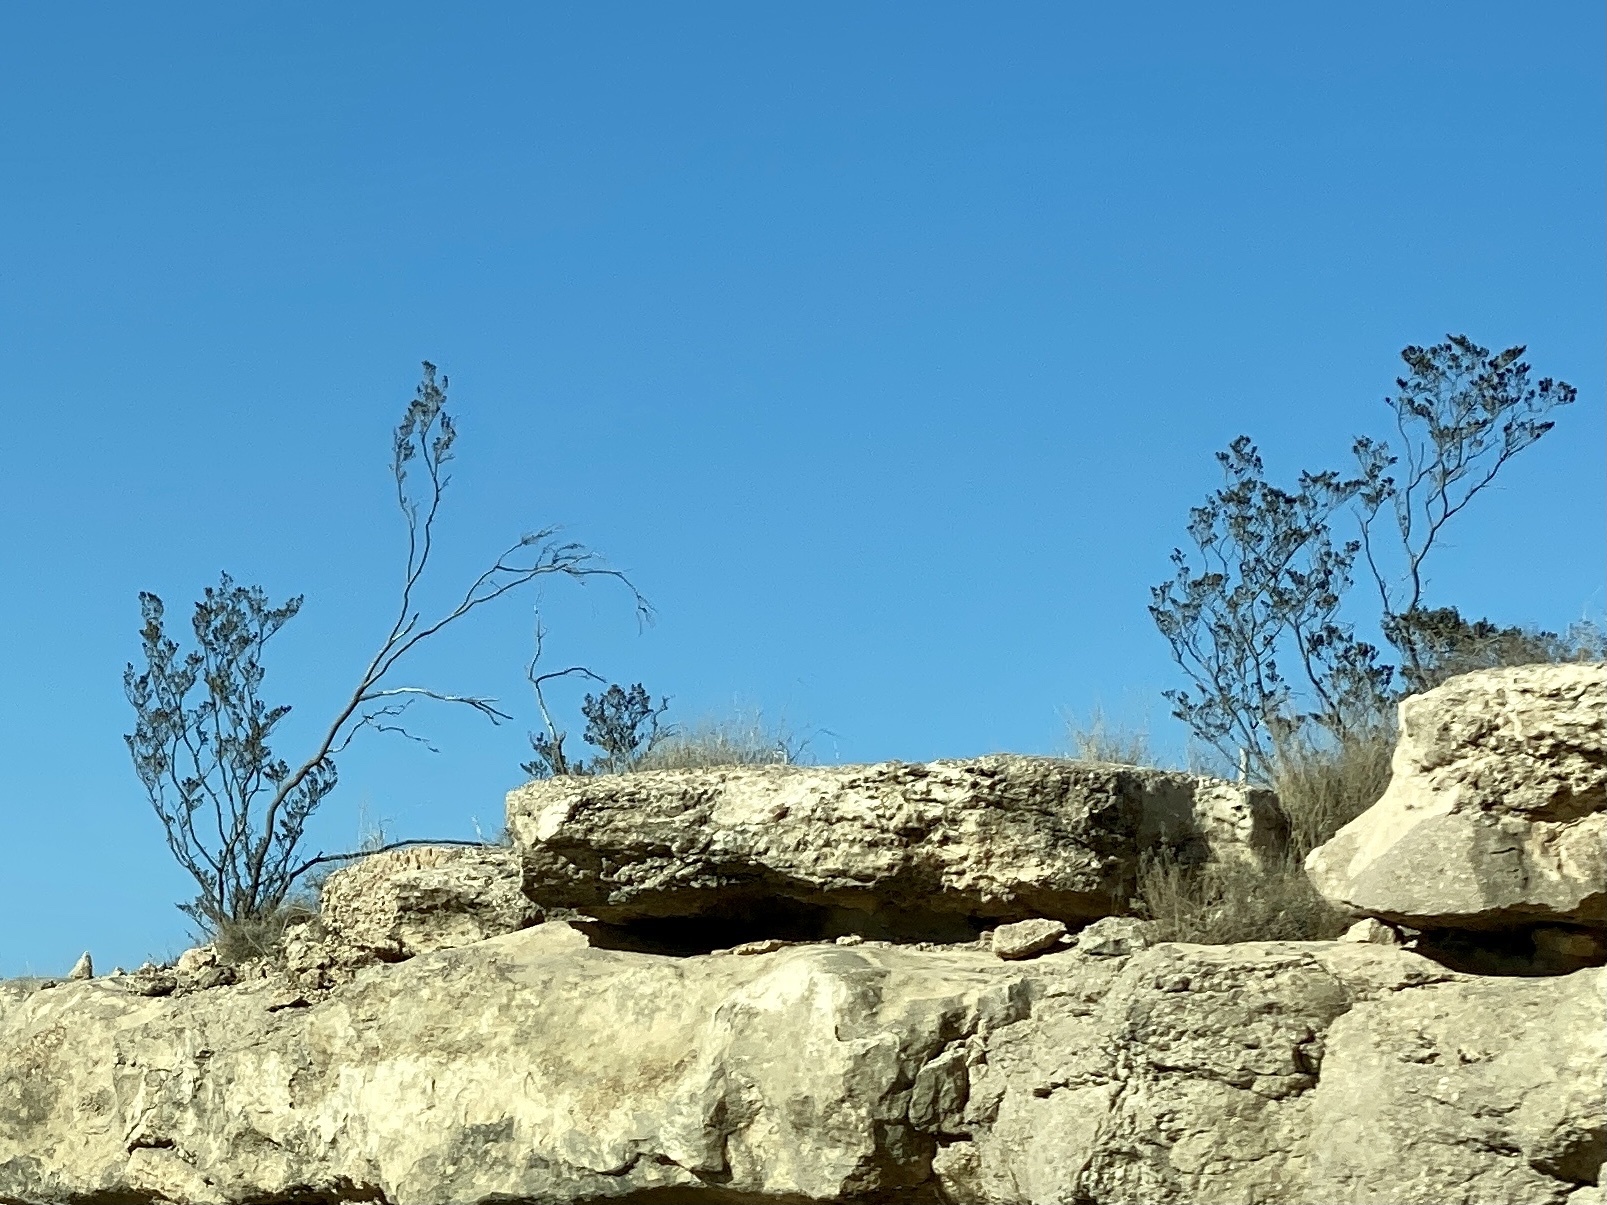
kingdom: Plantae
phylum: Tracheophyta
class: Magnoliopsida
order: Zygophyllales
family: Zygophyllaceae
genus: Larrea
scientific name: Larrea tridentata
